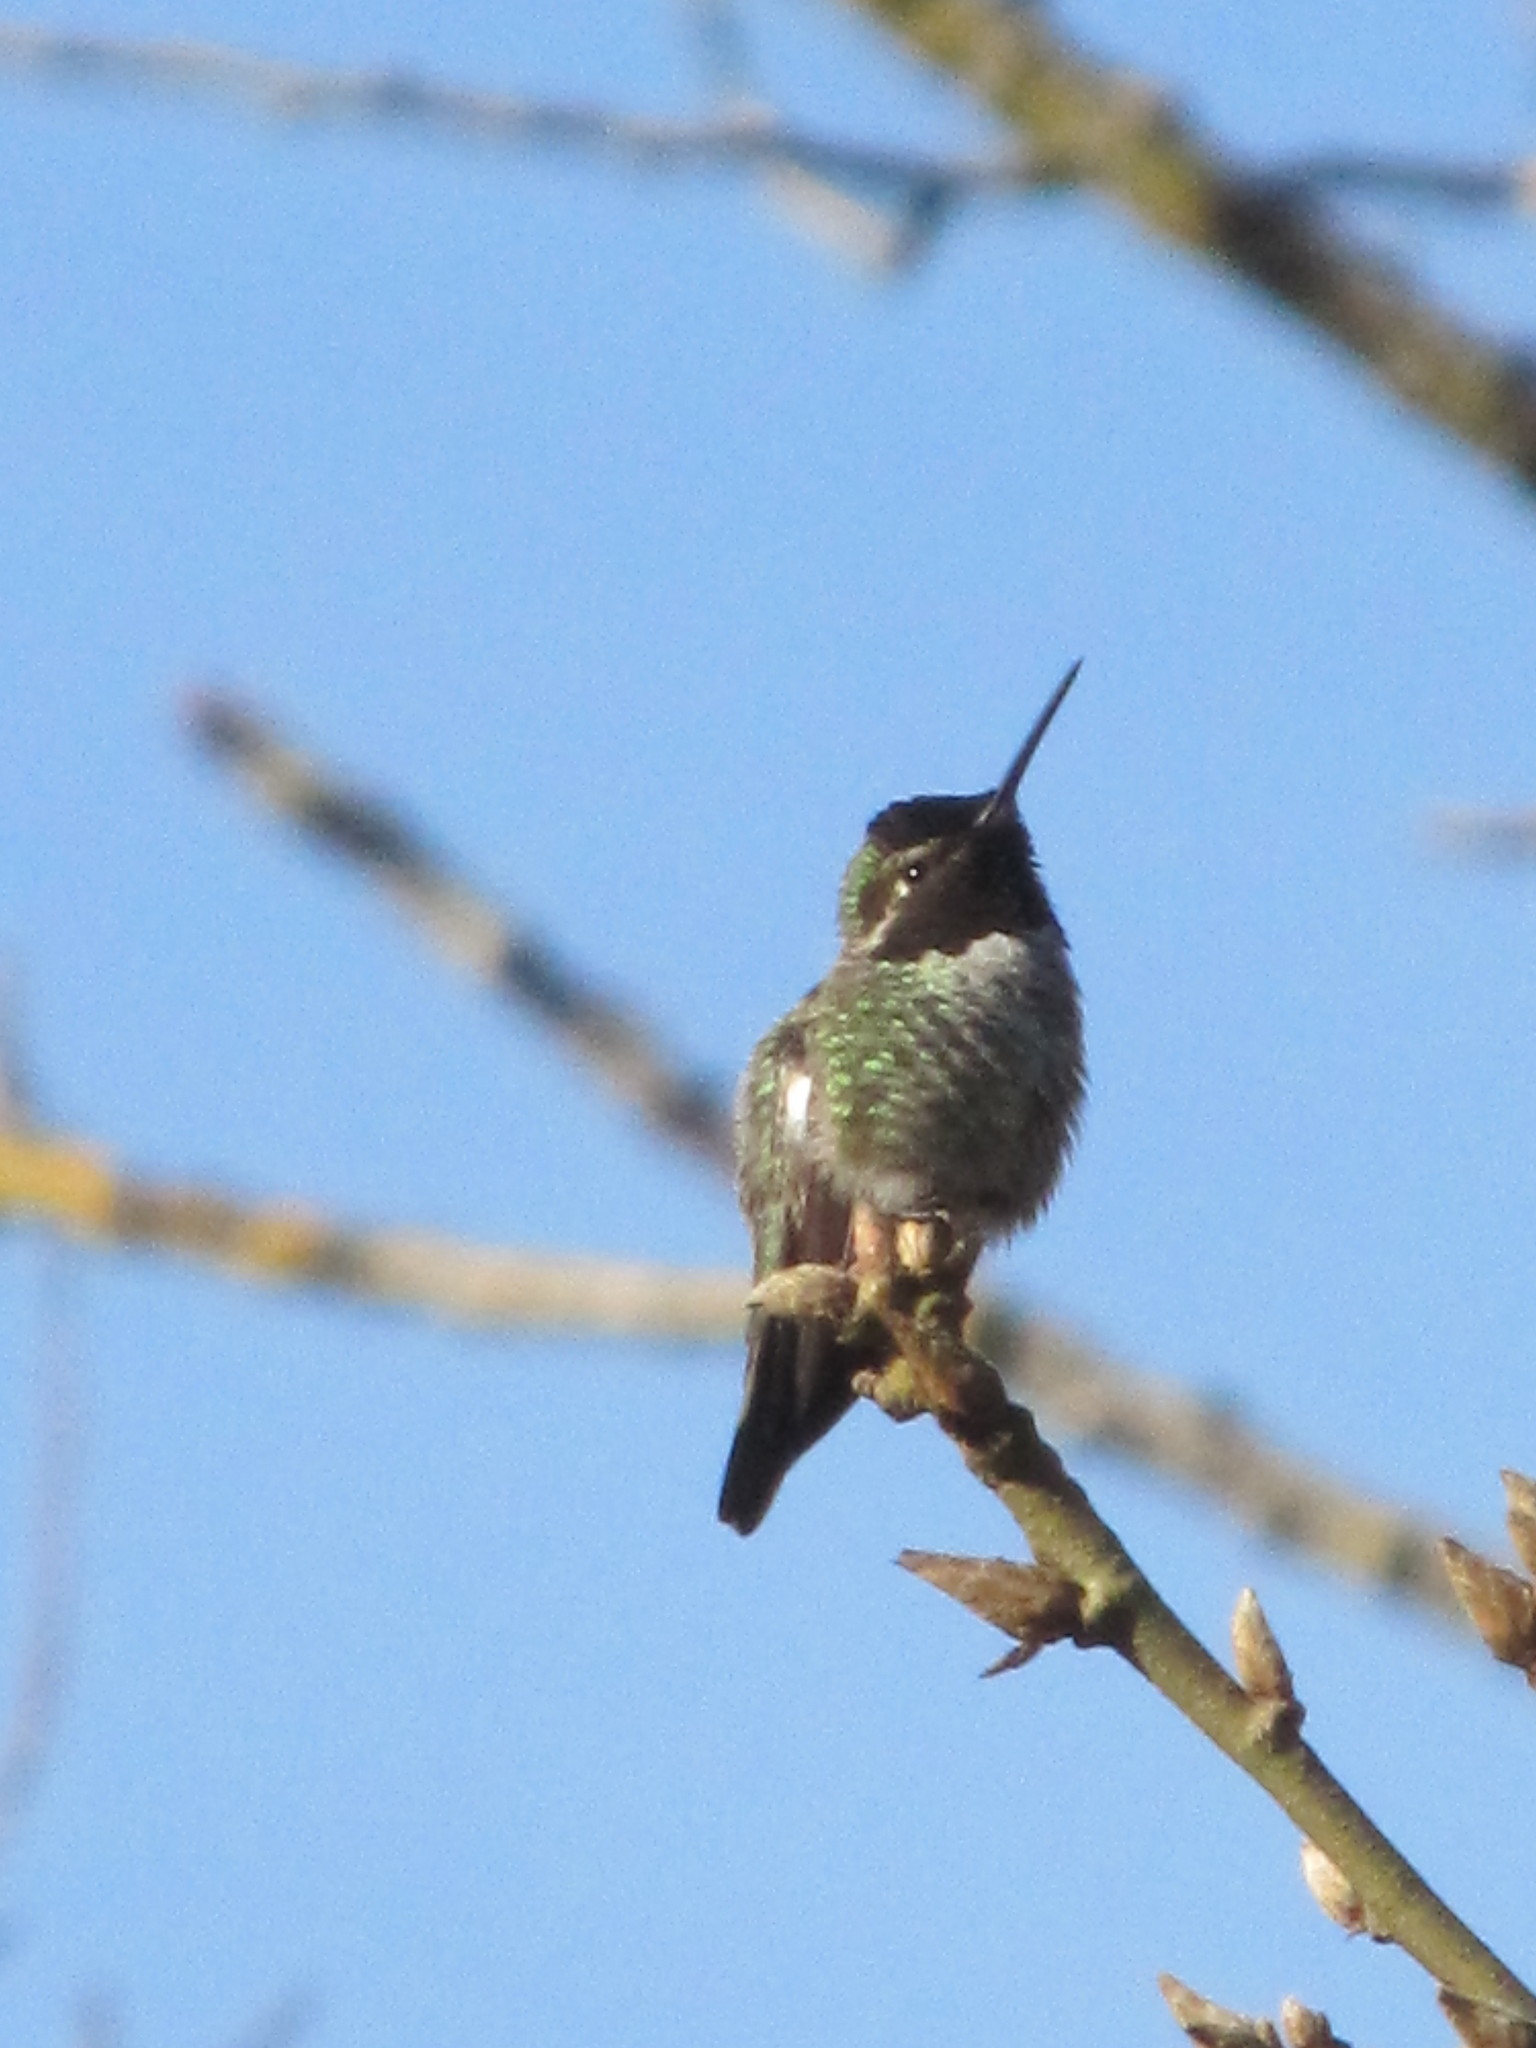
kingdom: Animalia
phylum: Chordata
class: Aves
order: Apodiformes
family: Trochilidae
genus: Calypte
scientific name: Calypte anna
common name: Anna's hummingbird
